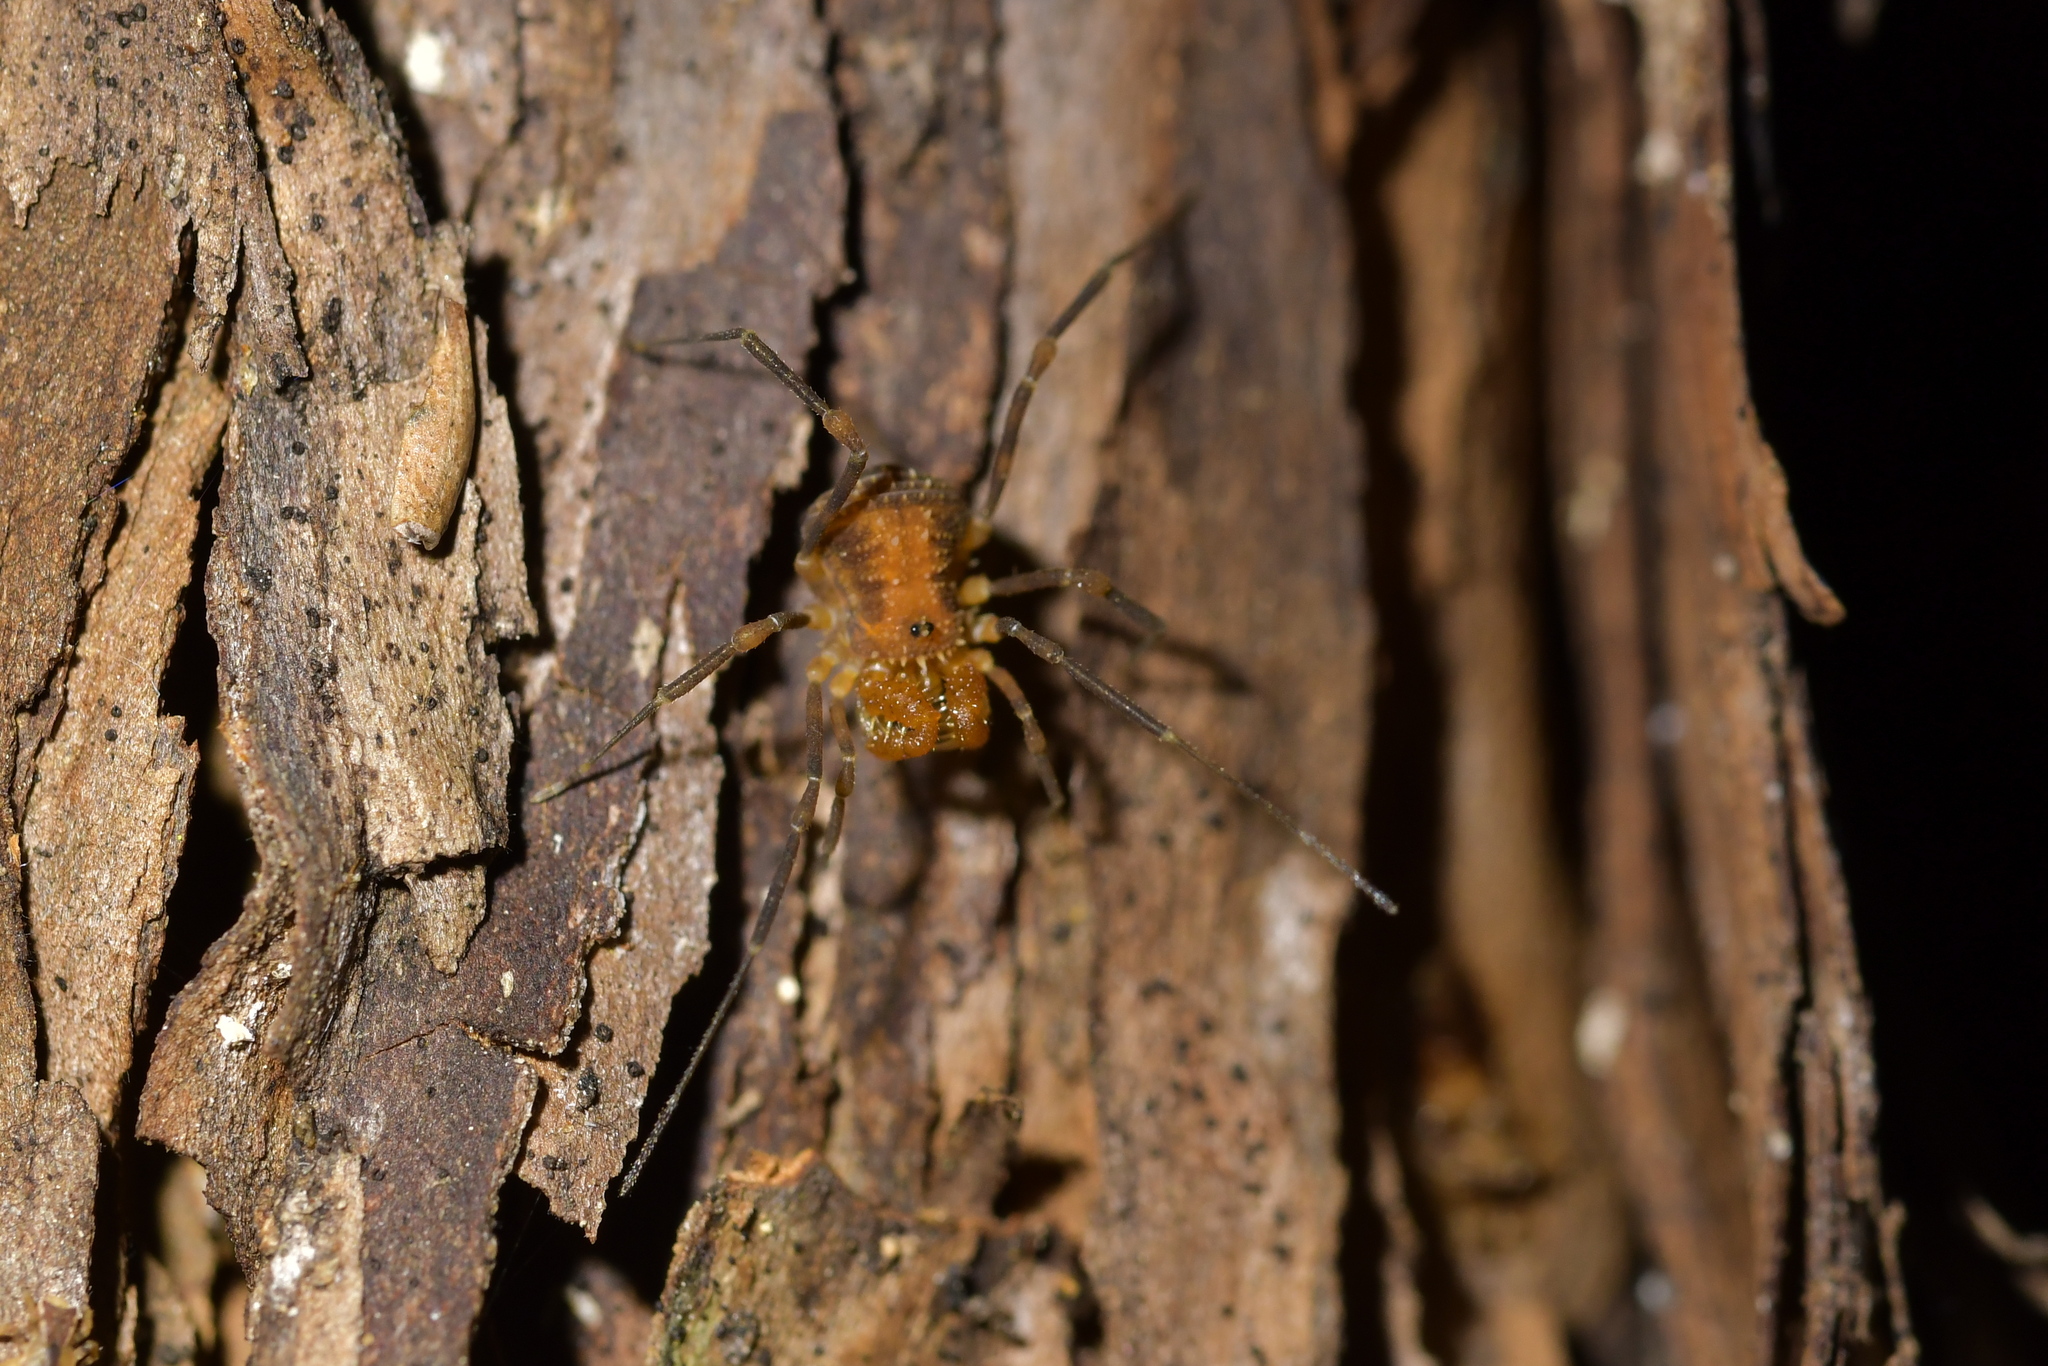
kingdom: Animalia
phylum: Arthropoda
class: Arachnida
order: Opiliones
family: Triaenonychidae
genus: Prasma
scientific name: Prasma tuberculata
